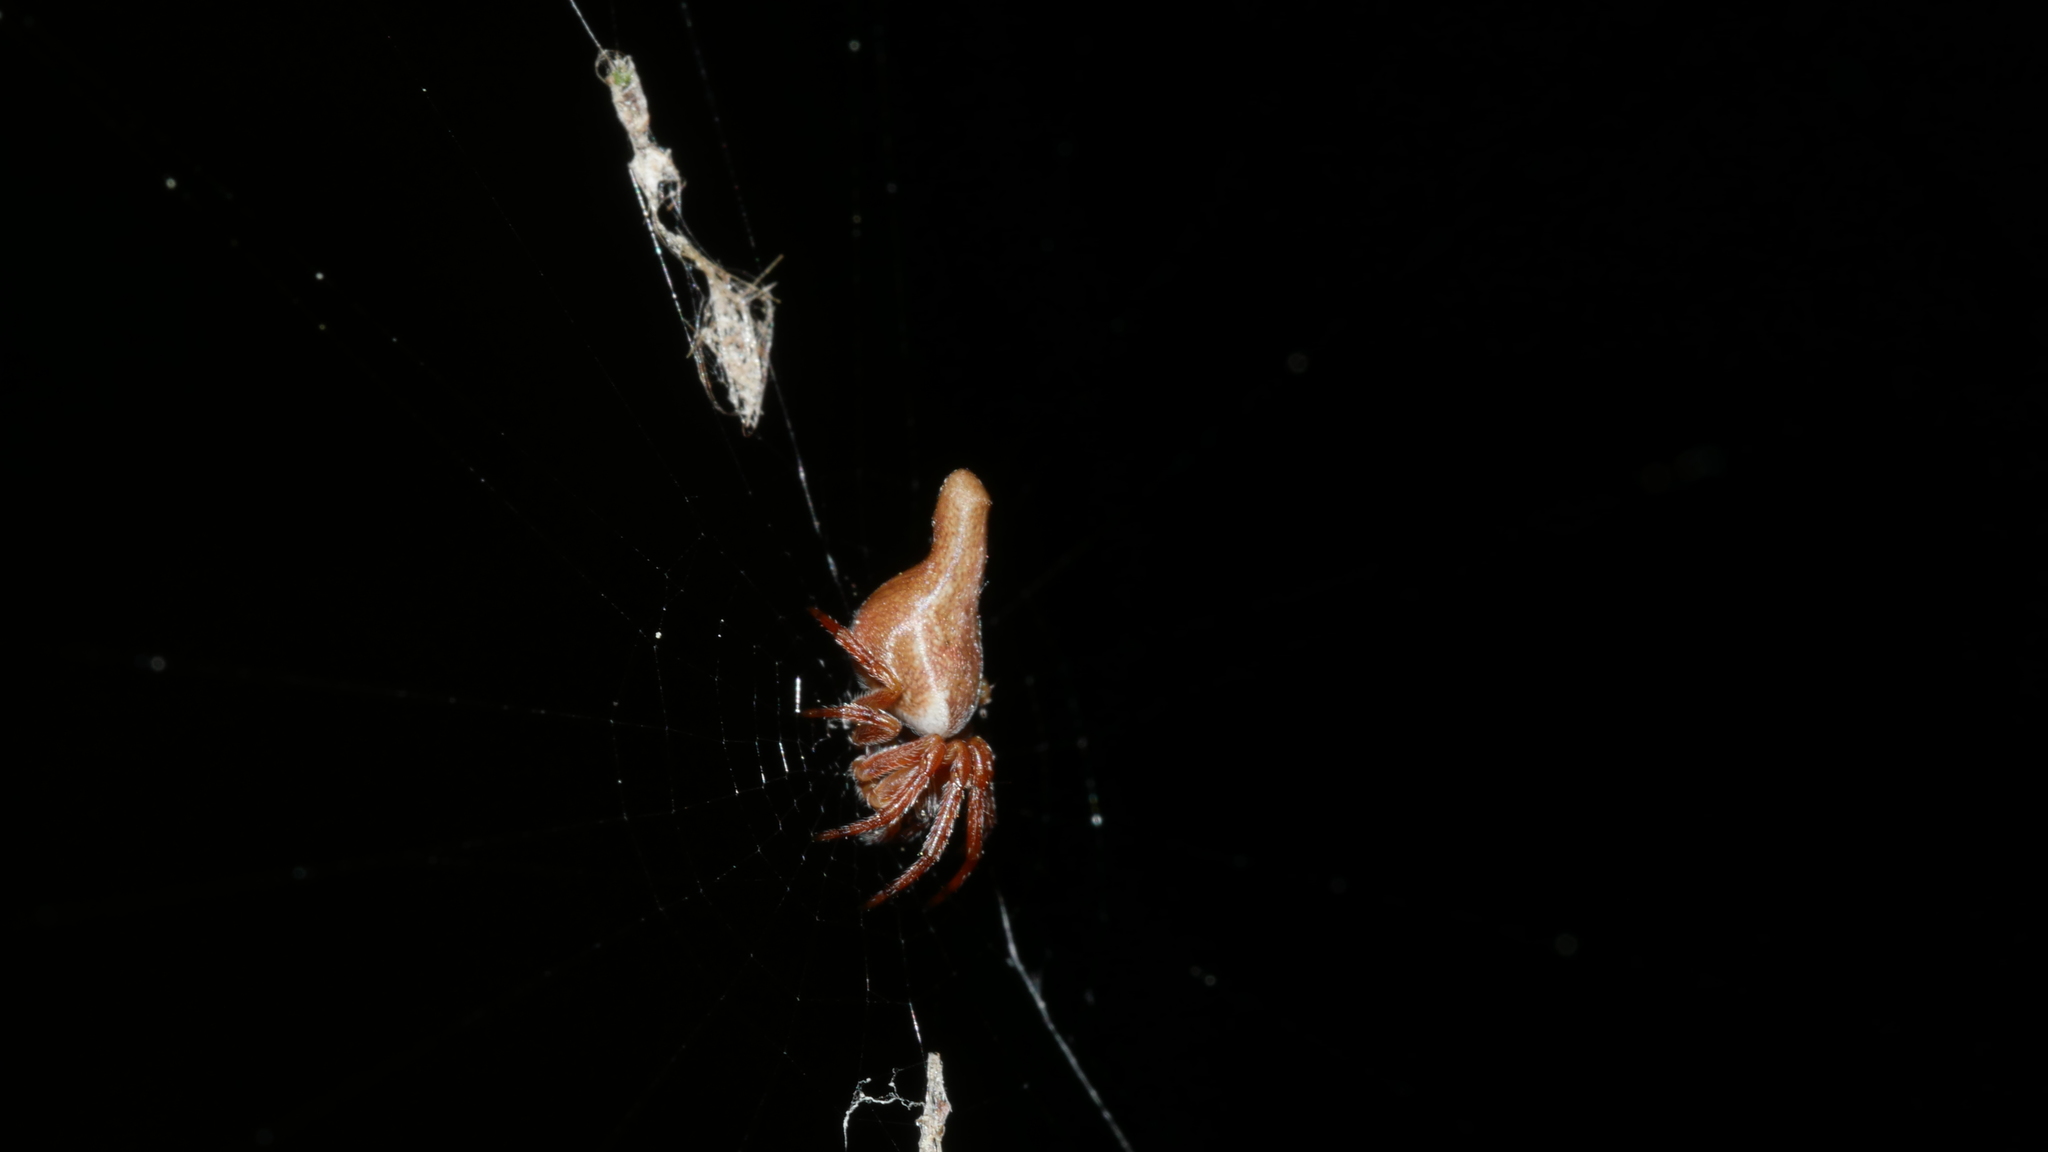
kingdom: Animalia
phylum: Arthropoda
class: Arachnida
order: Araneae
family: Araneidae
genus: Cyclosa
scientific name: Cyclosa conica
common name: Conical trashline orbweaver
